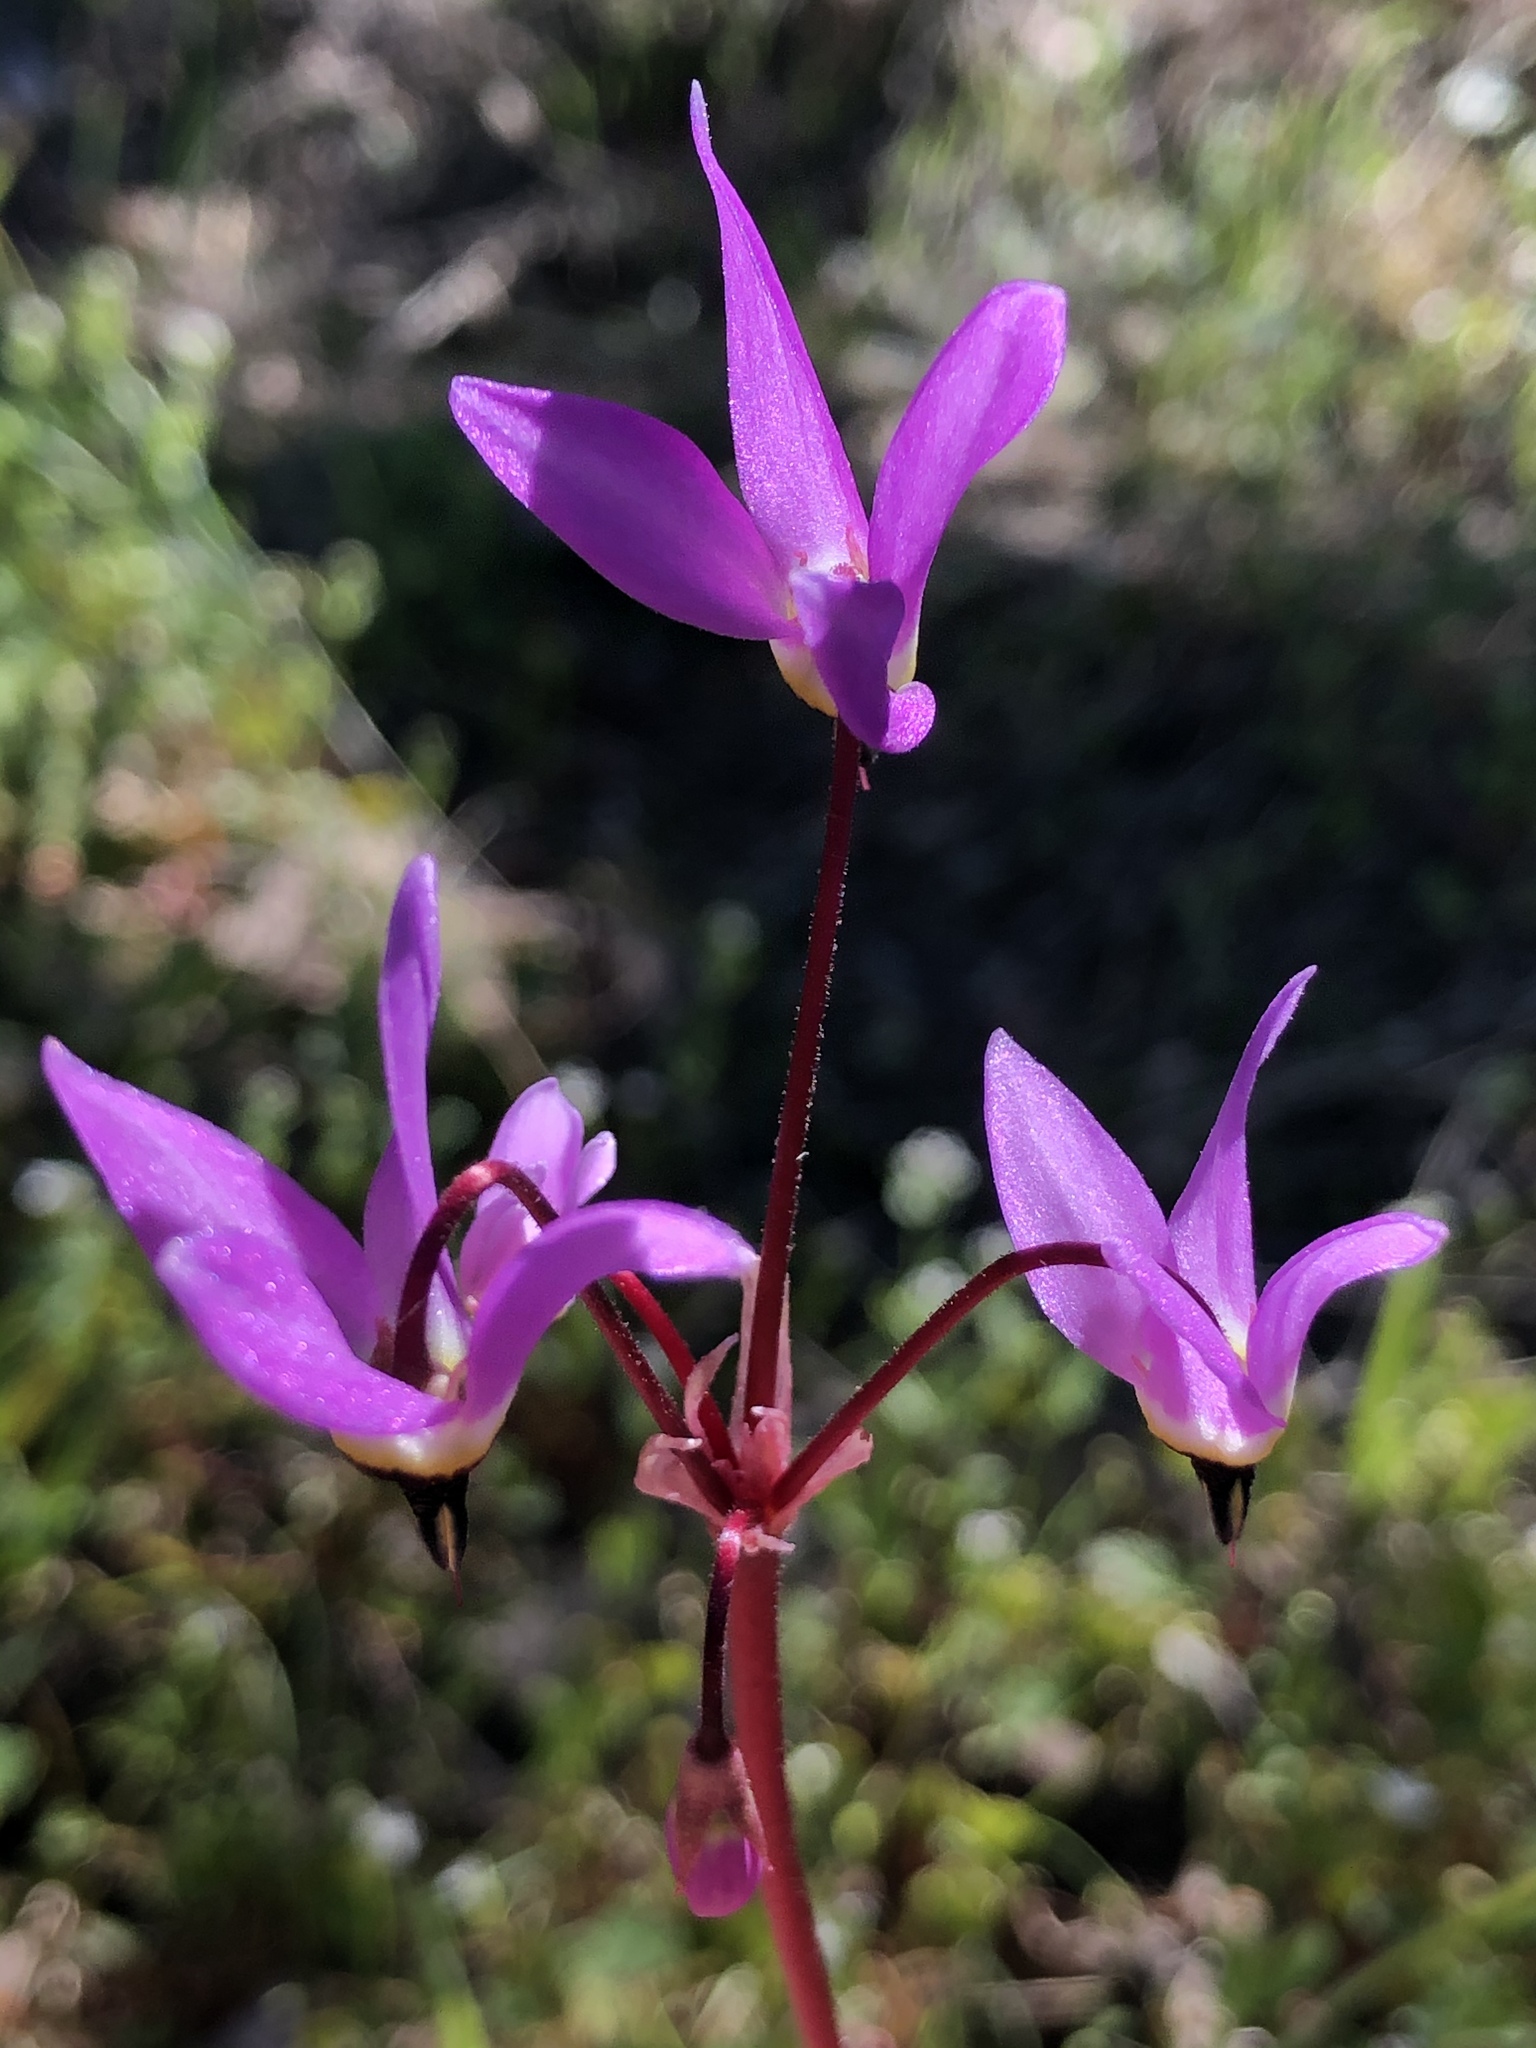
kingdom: Plantae
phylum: Tracheophyta
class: Magnoliopsida
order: Ericales
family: Primulaceae
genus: Dodecatheon
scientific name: Dodecatheon hendersonii
